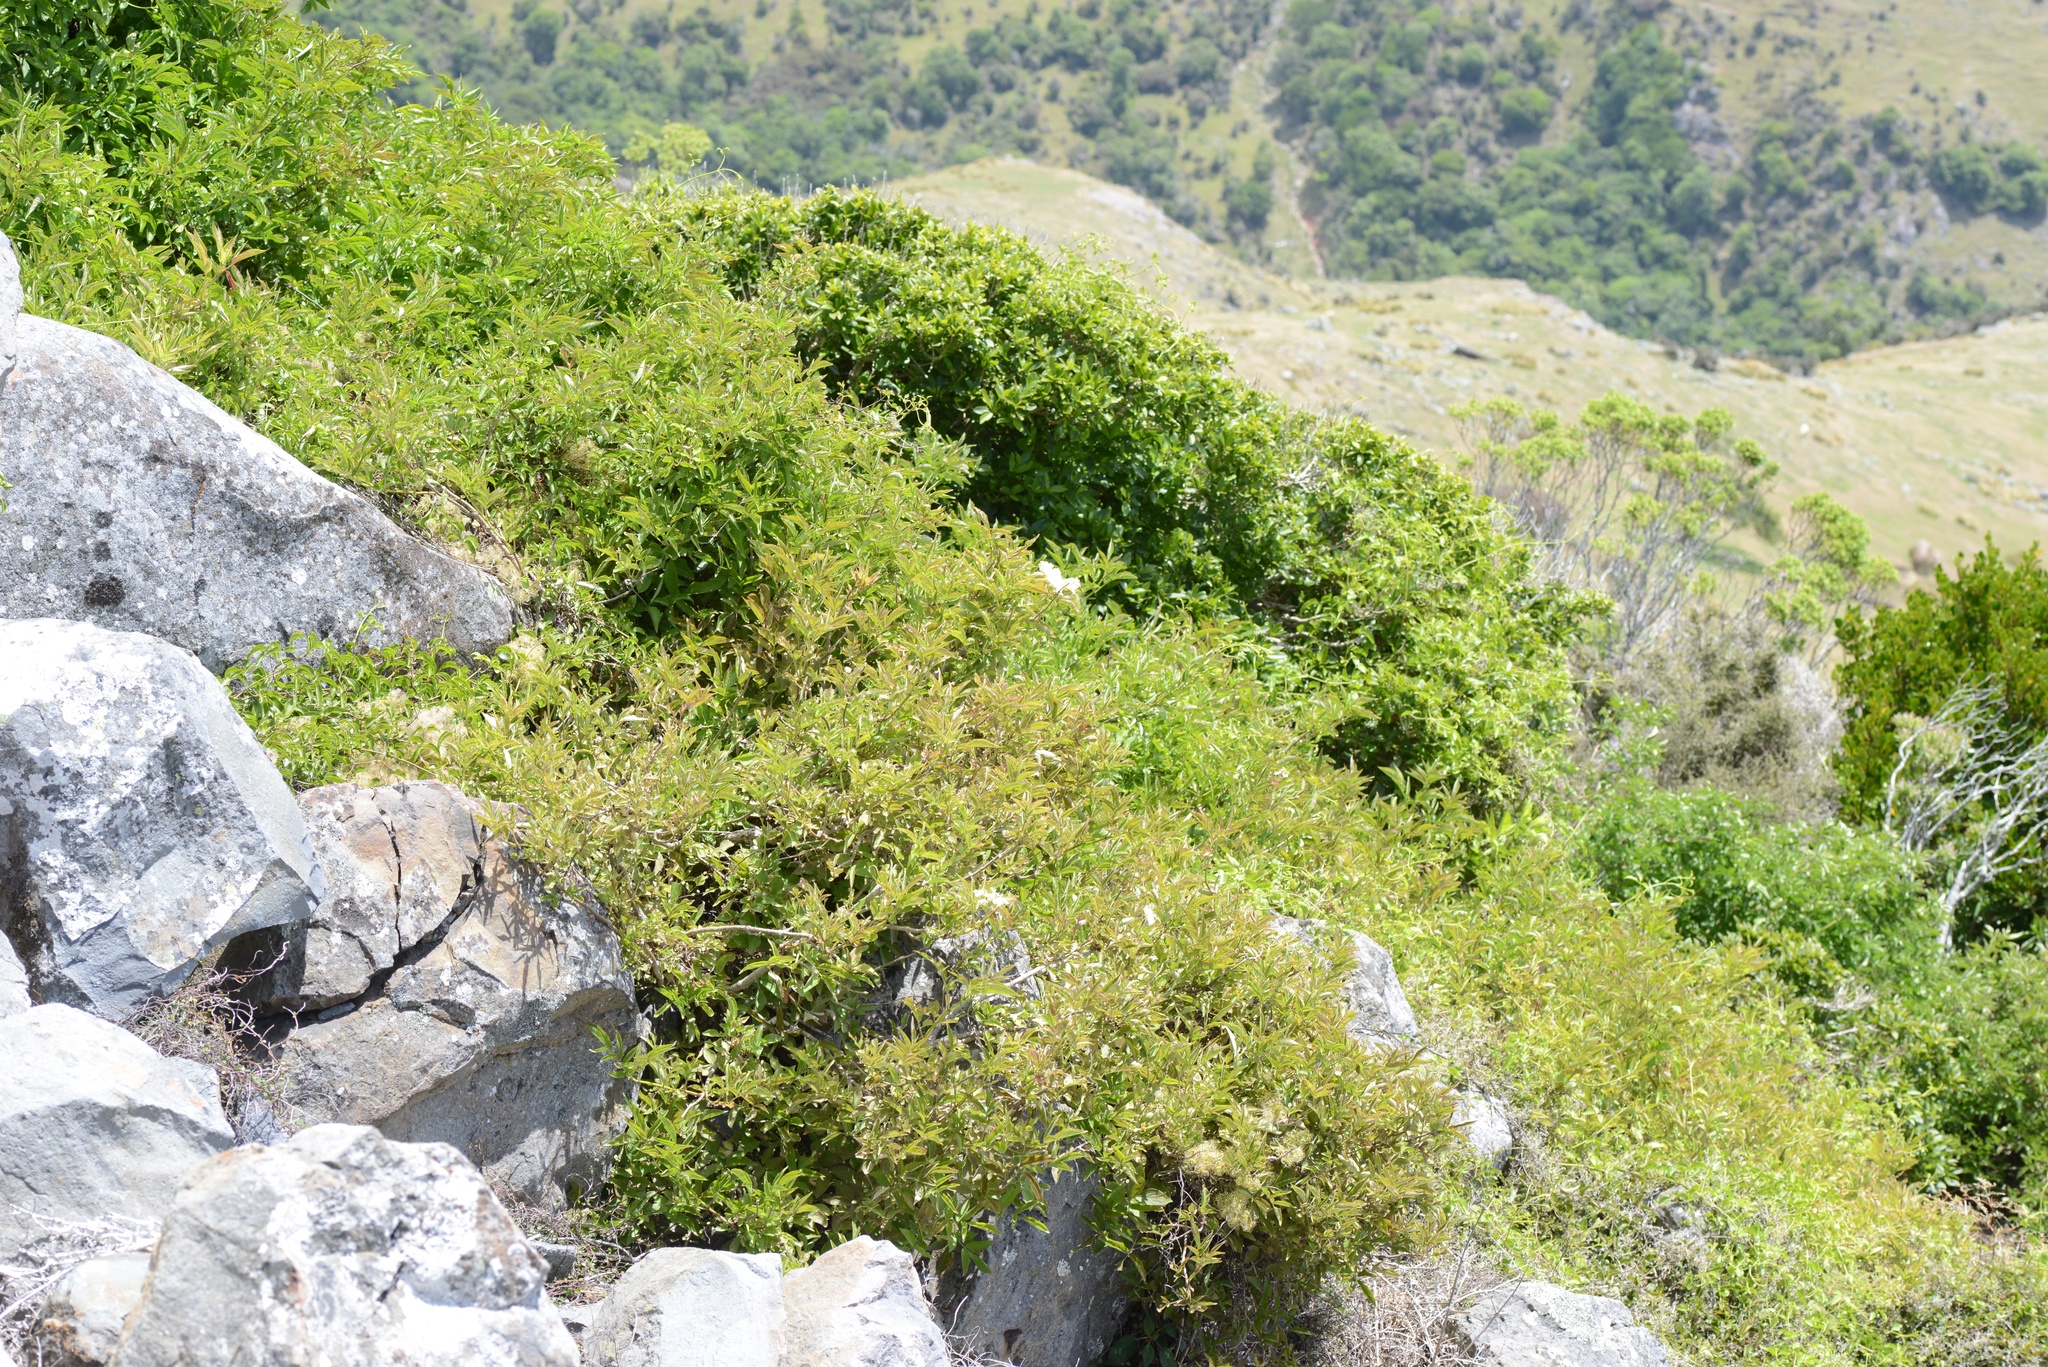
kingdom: Plantae
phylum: Tracheophyta
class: Magnoliopsida
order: Dipsacales
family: Viburnaceae
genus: Sambucus
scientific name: Sambucus nigra
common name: Elder
